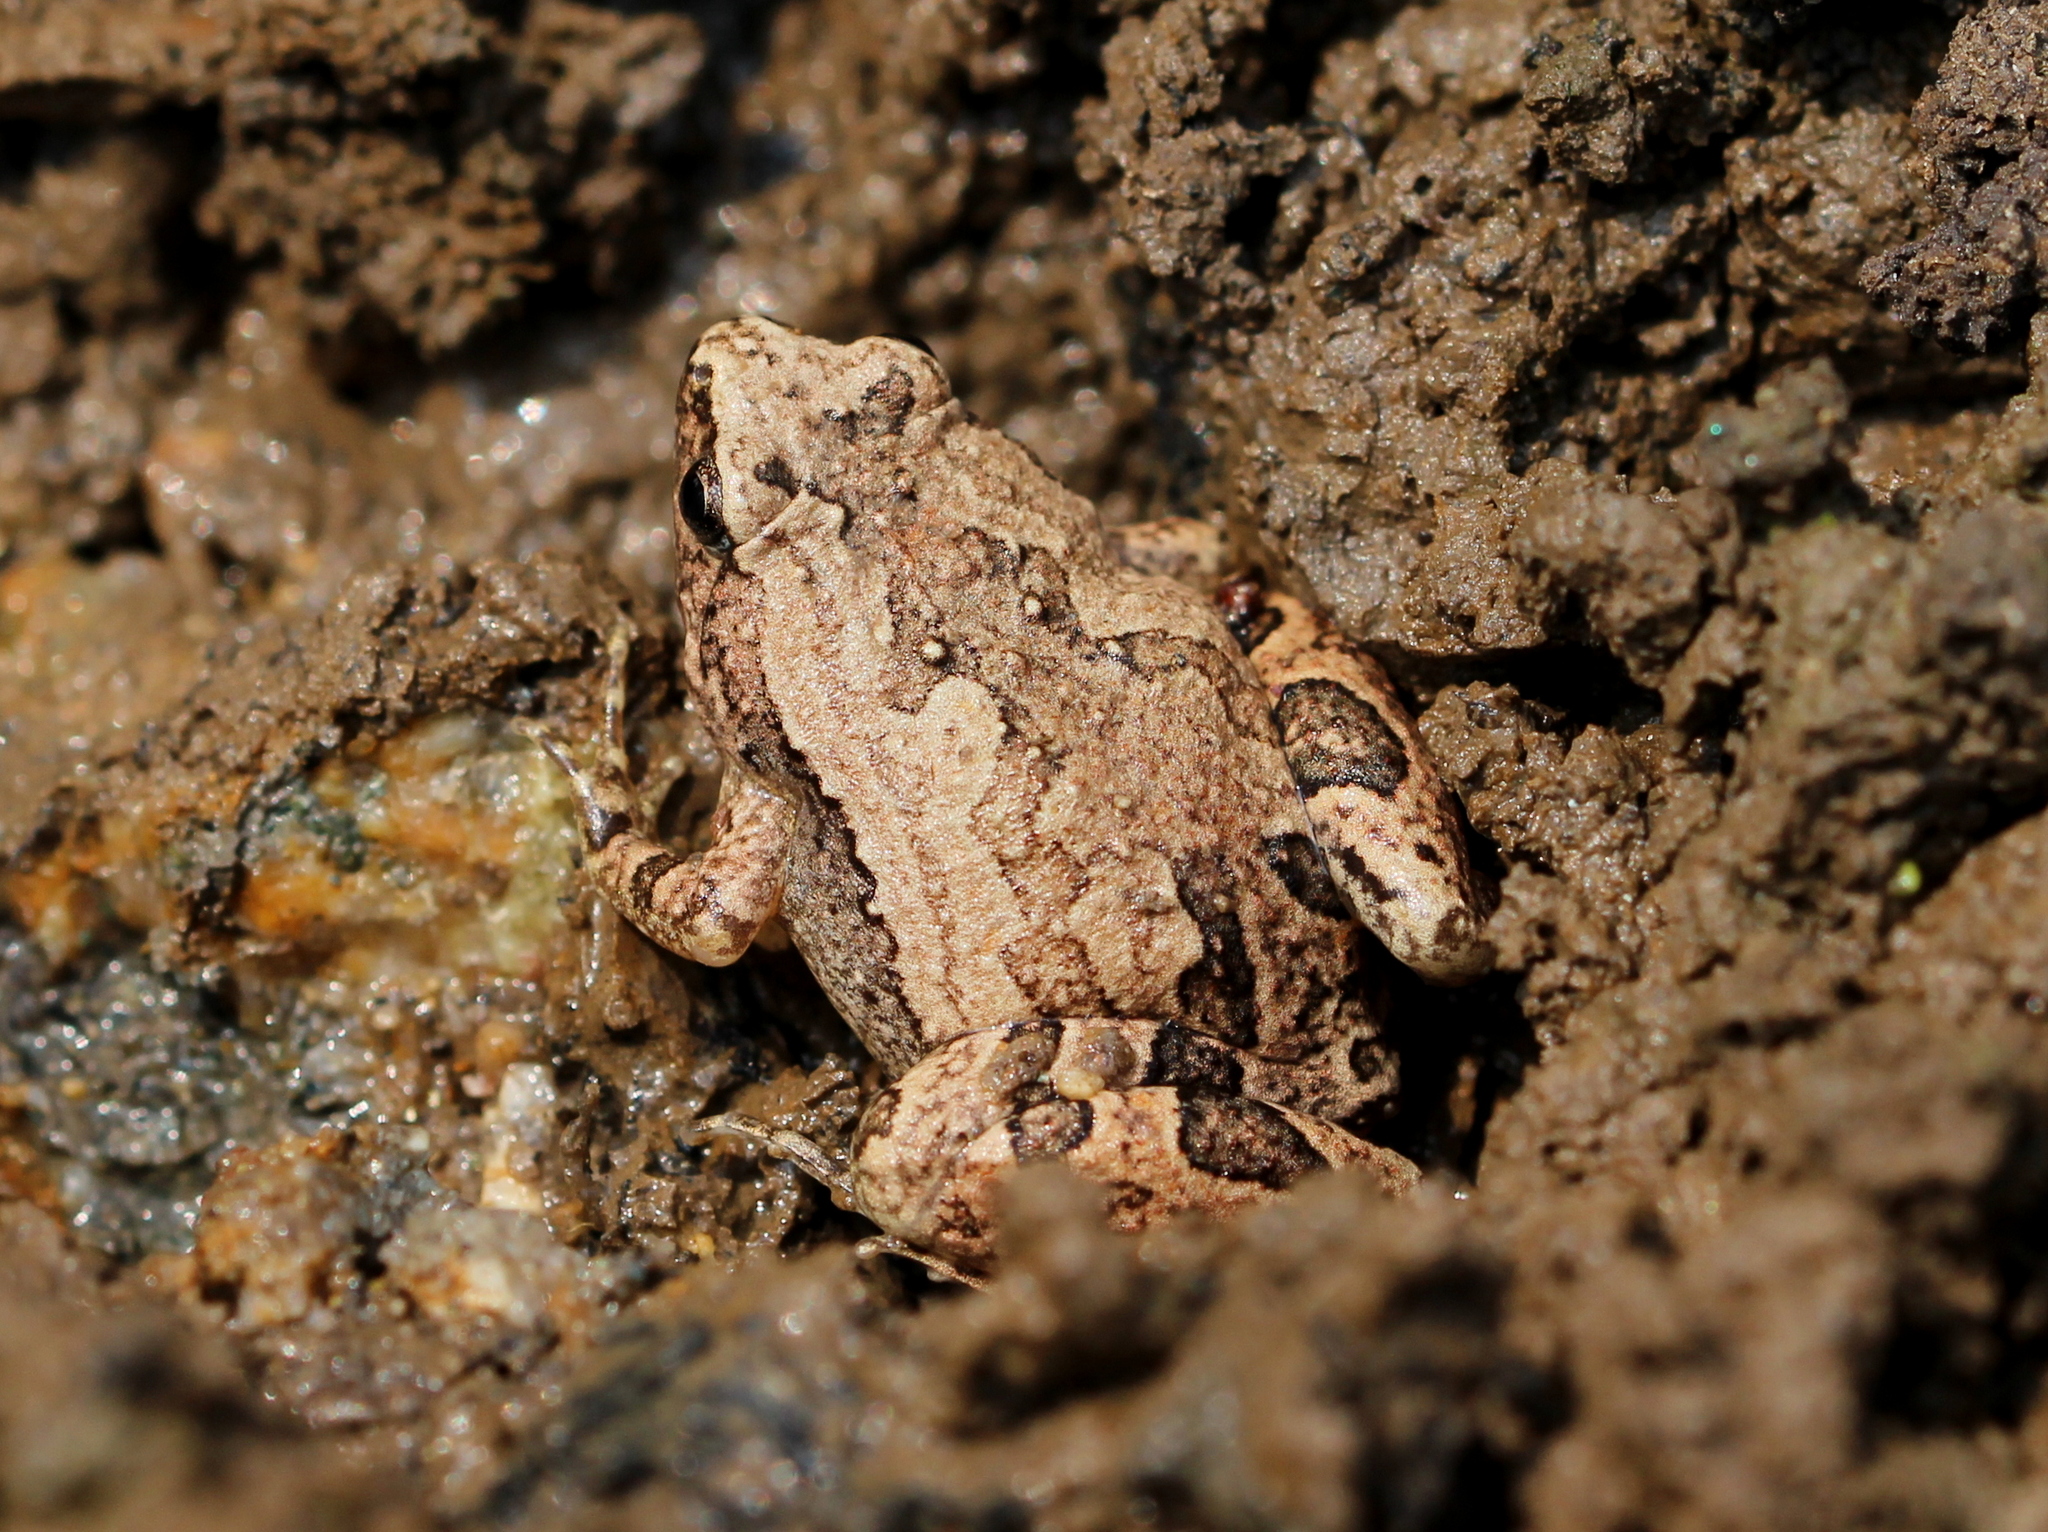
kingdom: Animalia
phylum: Chordata
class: Amphibia
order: Anura
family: Microhylidae
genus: Microhyla
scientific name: Microhyla ornata
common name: Ant frog
